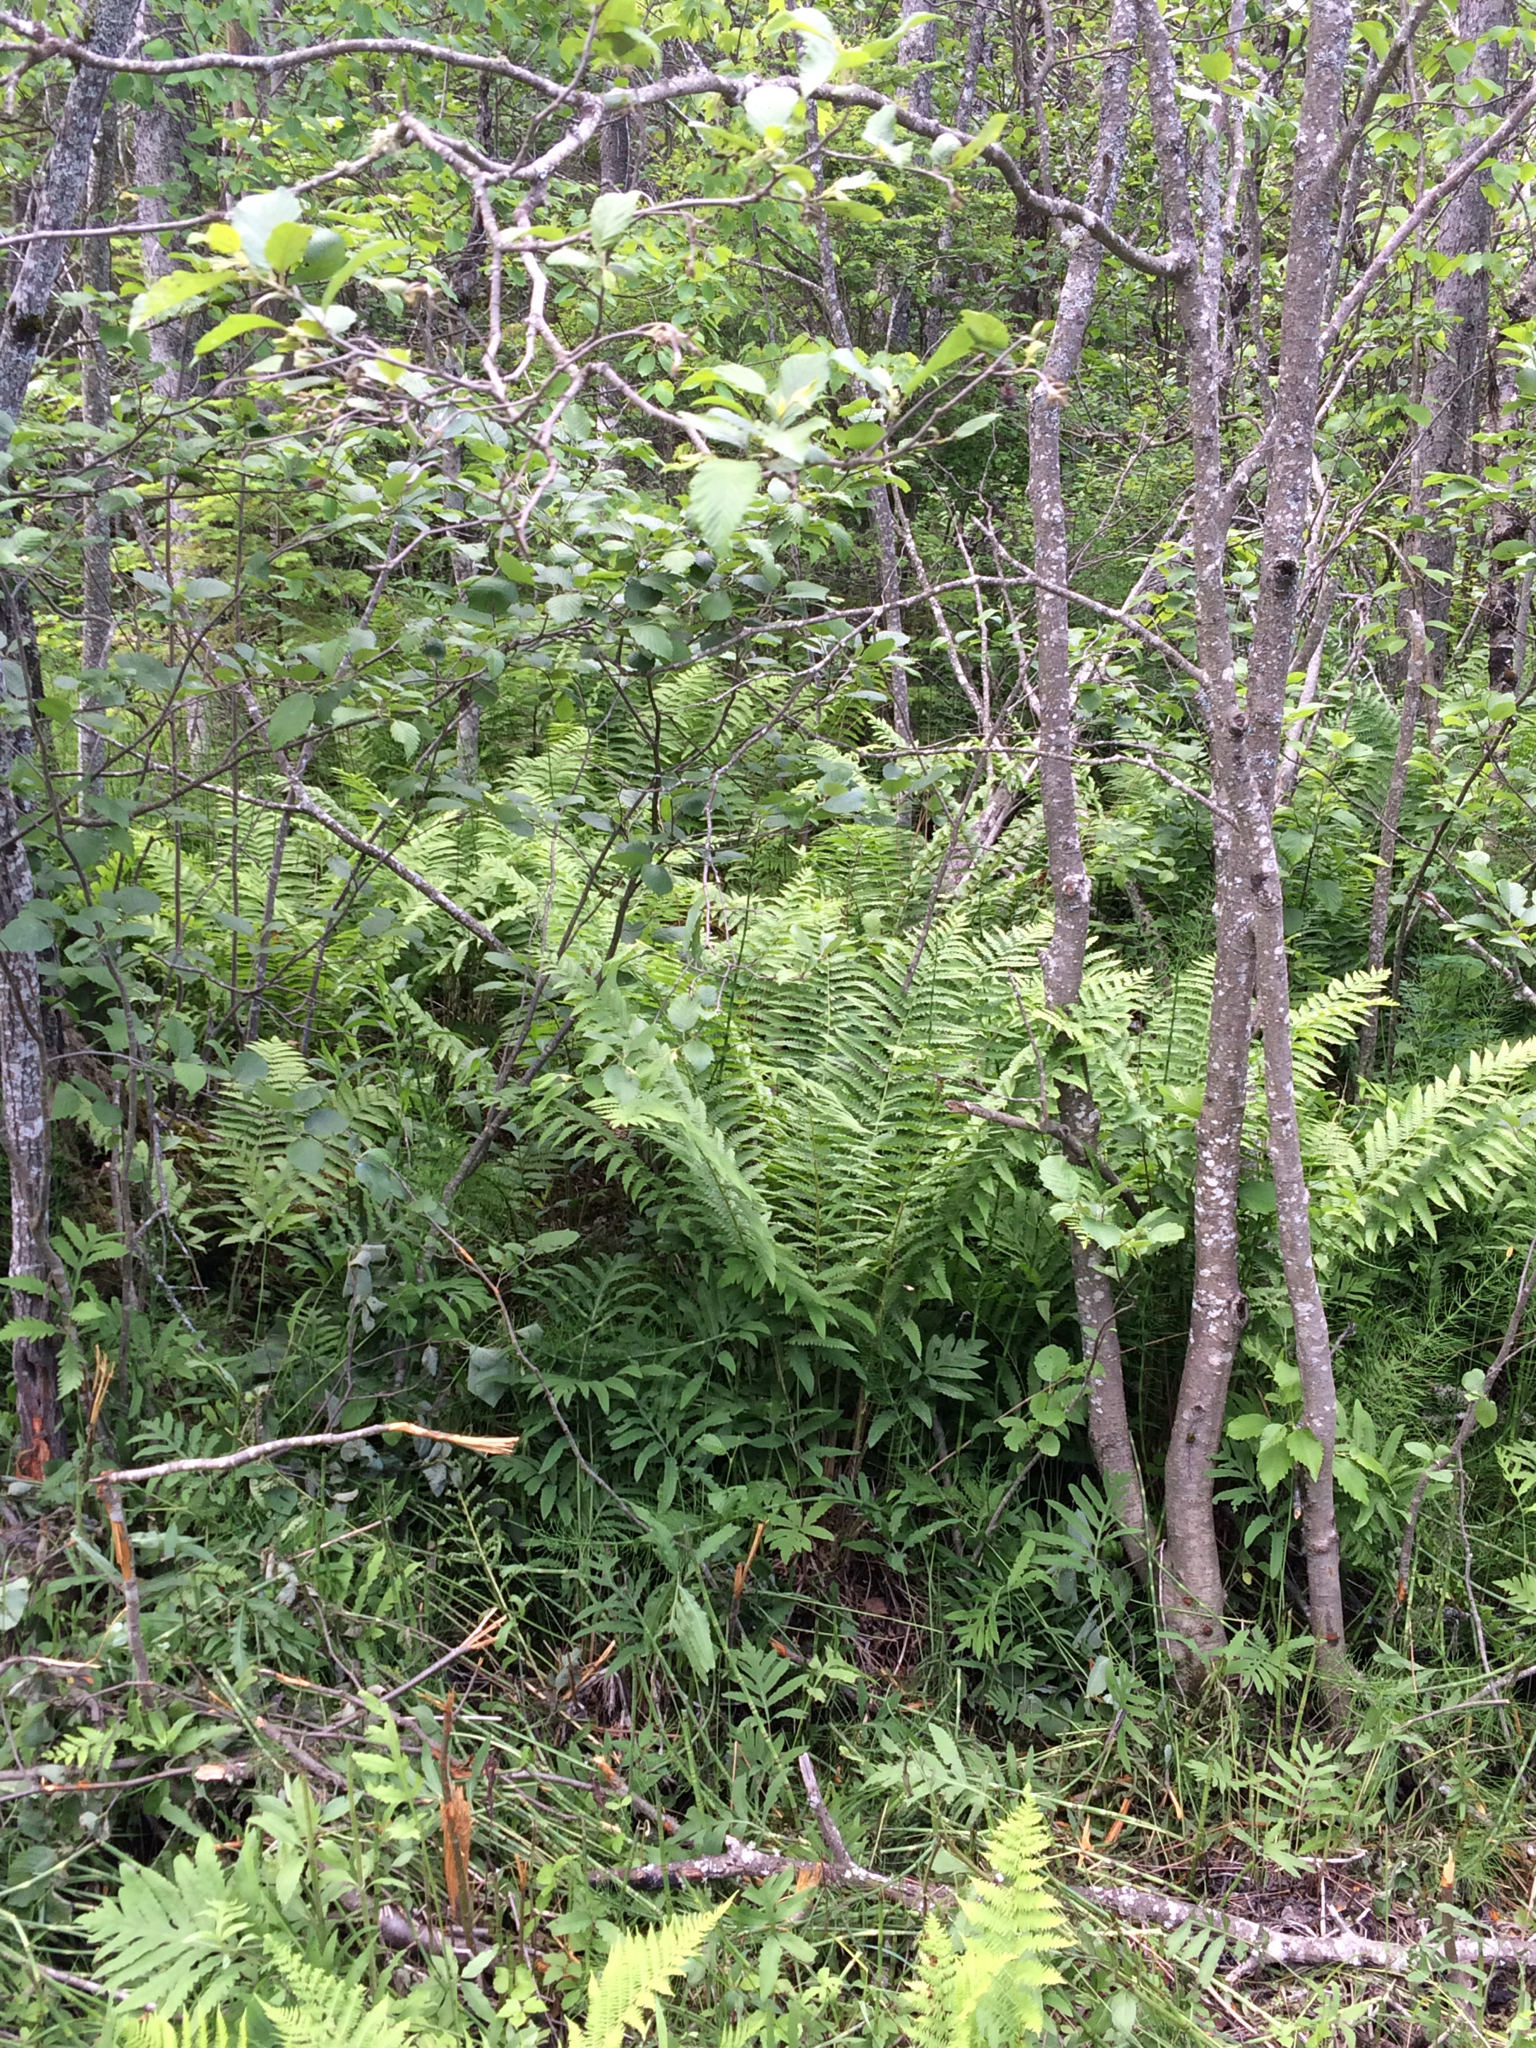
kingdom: Plantae
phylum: Tracheophyta
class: Polypodiopsida
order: Osmundales
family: Osmundaceae
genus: Osmundastrum
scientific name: Osmundastrum cinnamomeum
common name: Cinnamon fern
